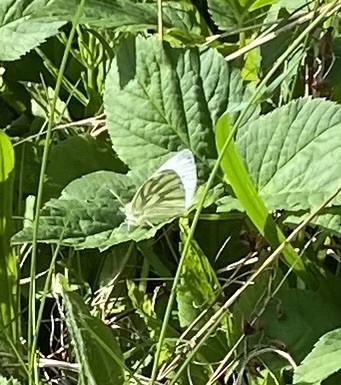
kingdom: Animalia
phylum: Arthropoda
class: Insecta
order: Lepidoptera
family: Pieridae
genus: Pieris
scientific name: Pieris napi
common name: Green-veined white
